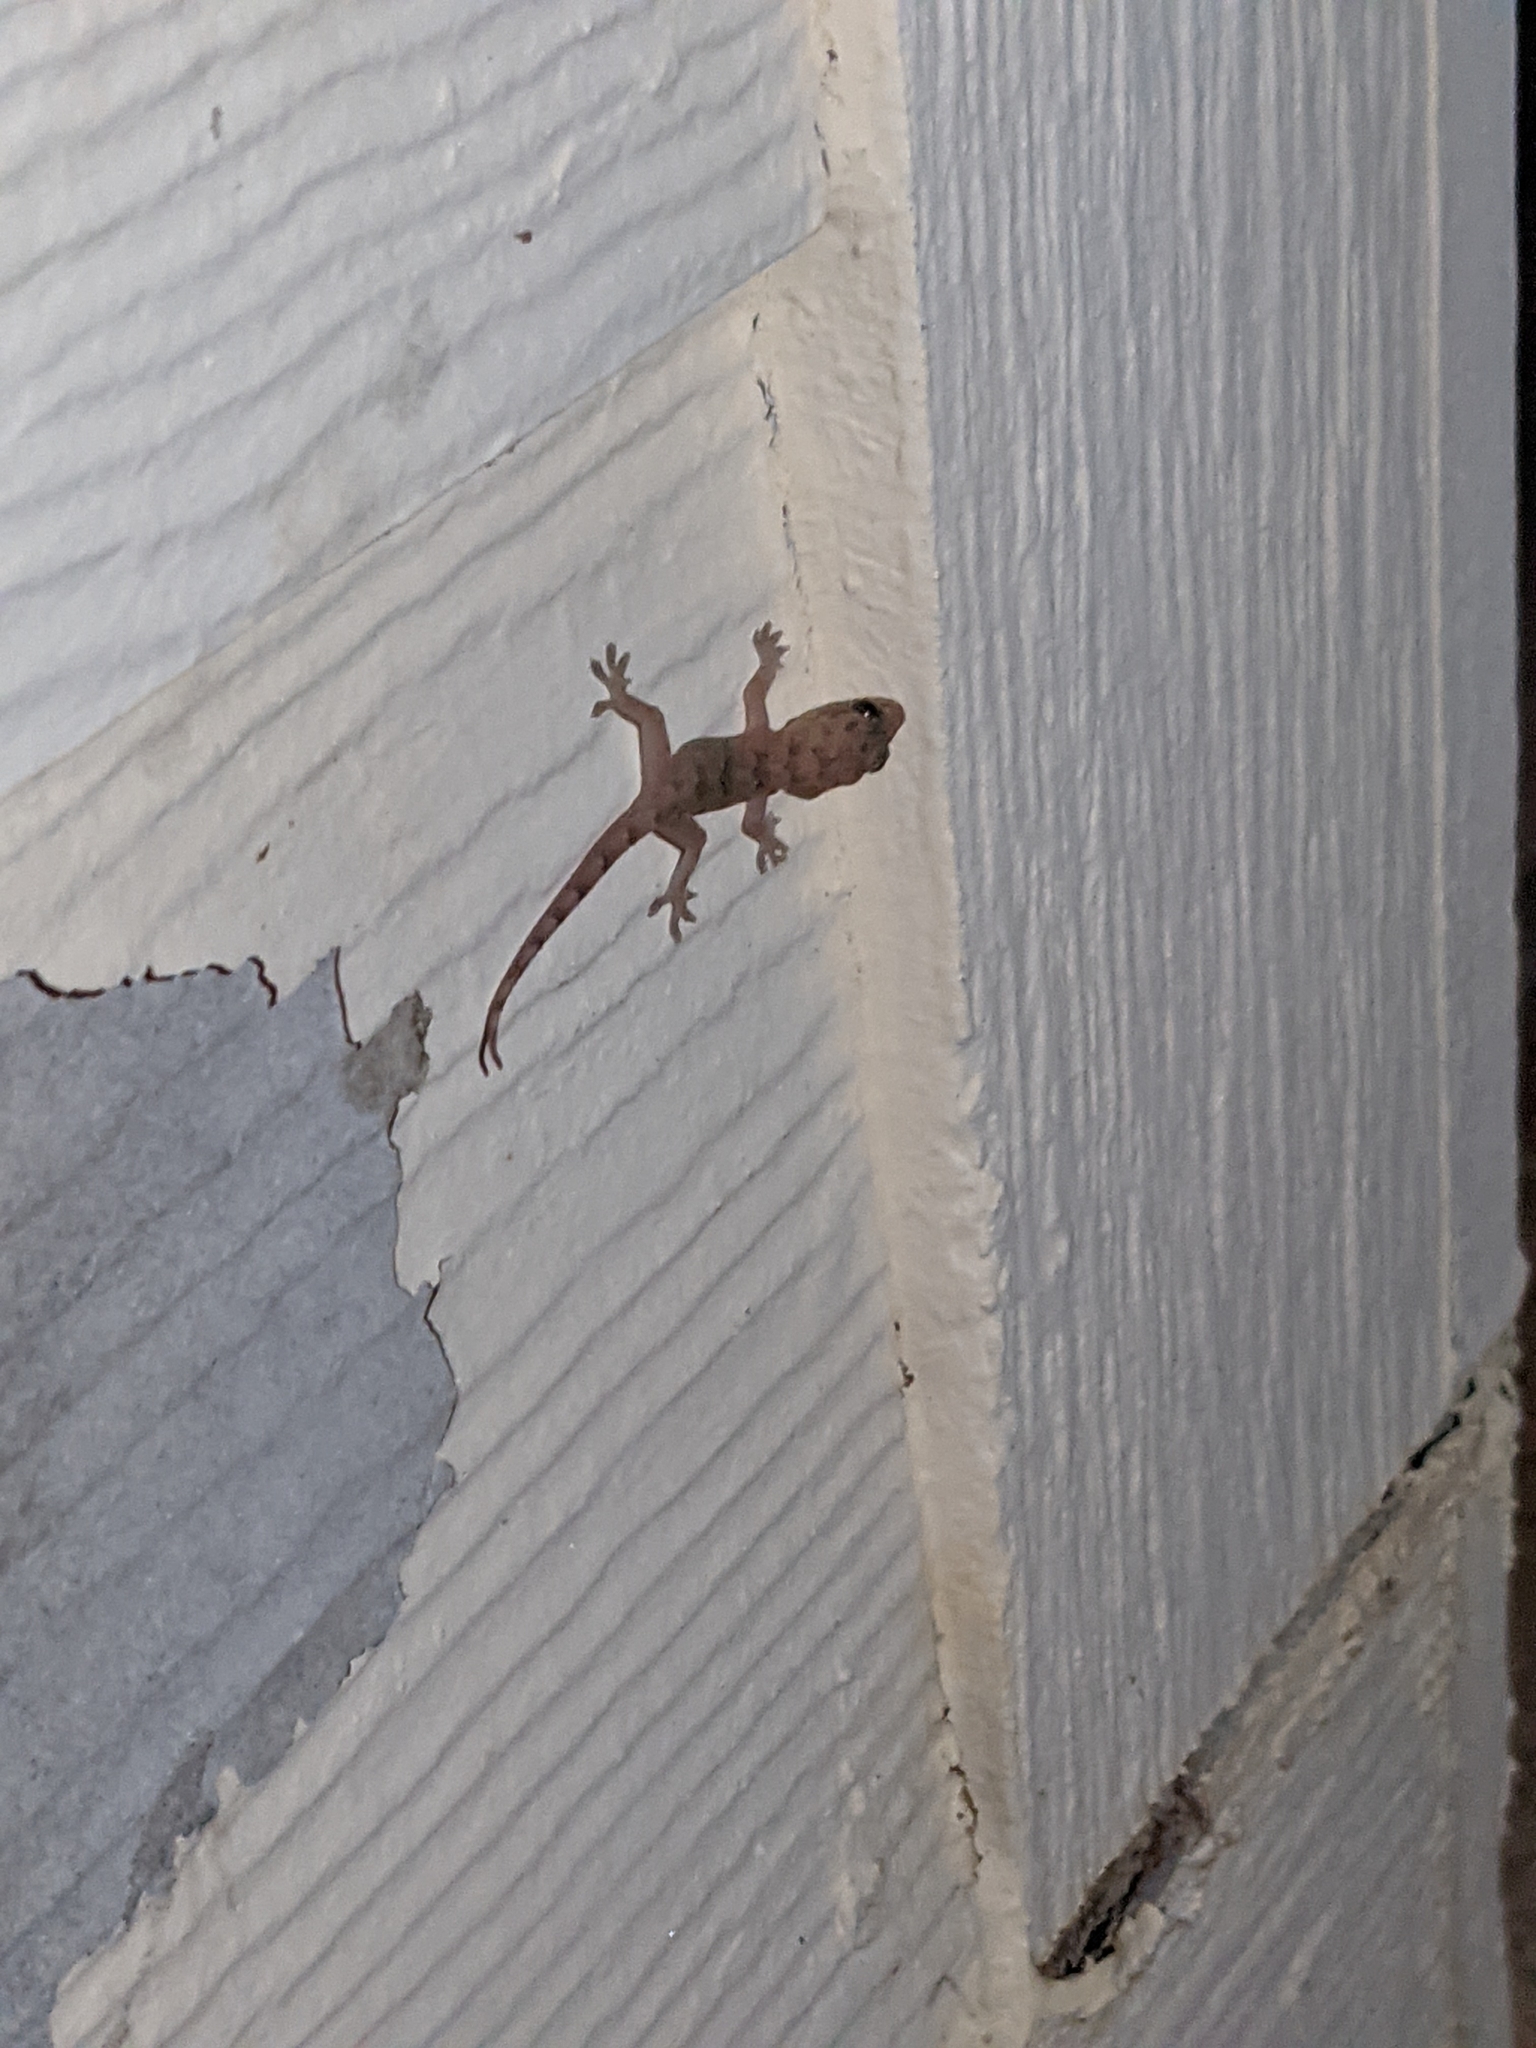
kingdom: Animalia
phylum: Chordata
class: Squamata
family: Gekkonidae
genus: Hemidactylus
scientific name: Hemidactylus mabouia
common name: House gecko
